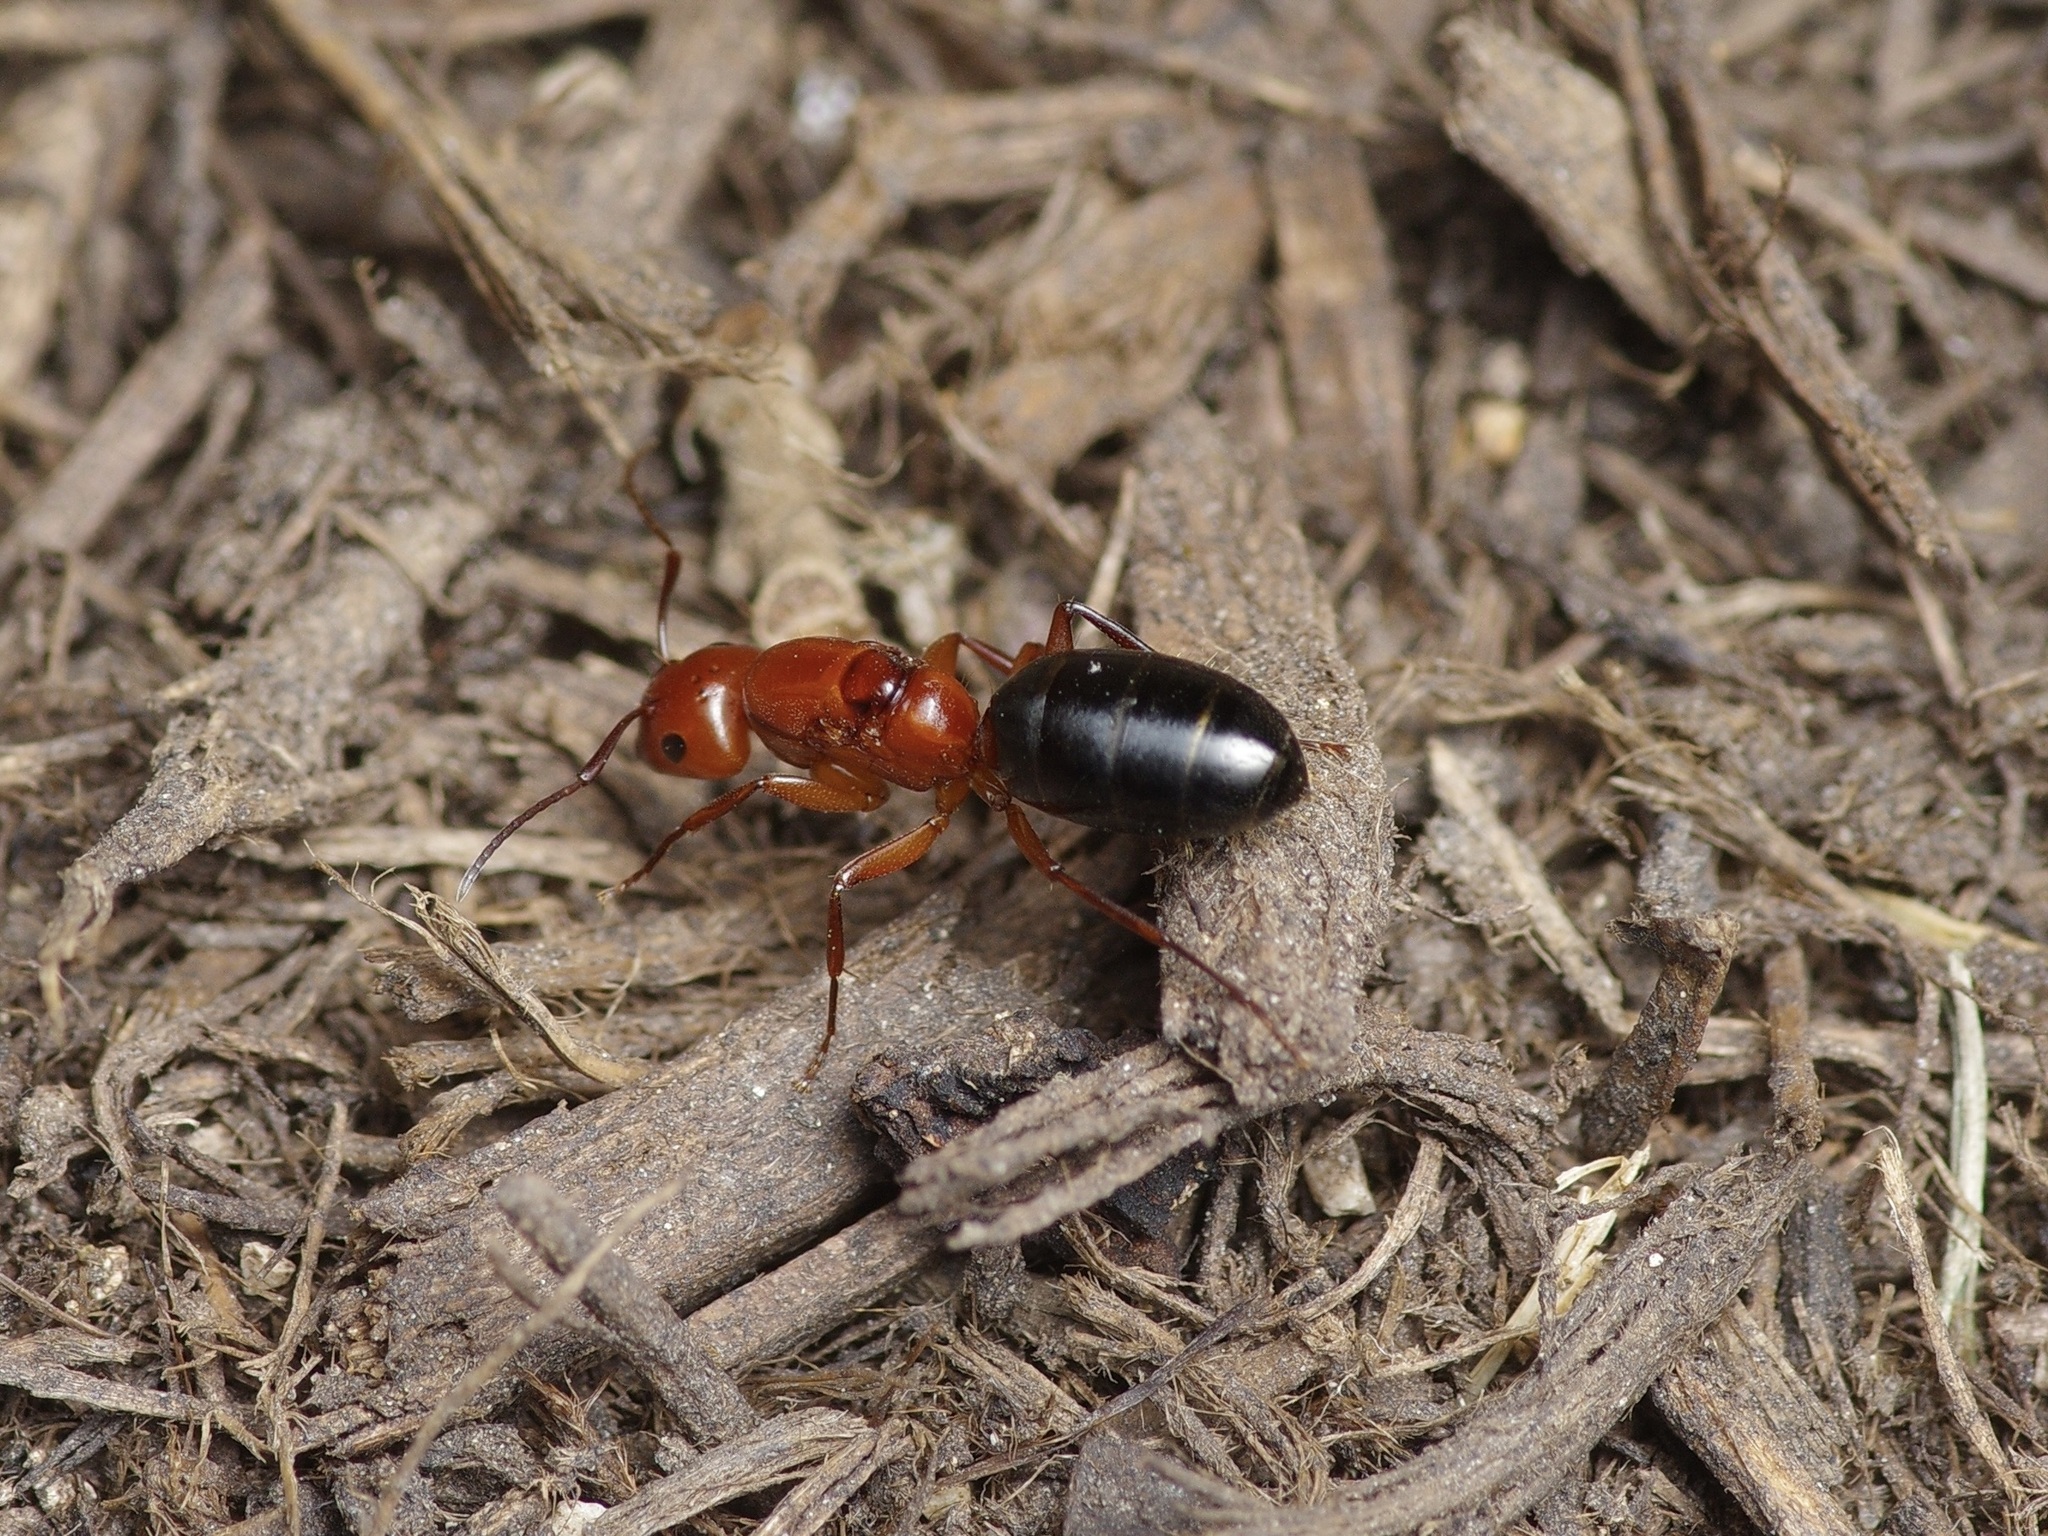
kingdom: Animalia
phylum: Arthropoda
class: Insecta
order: Hymenoptera
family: Formicidae
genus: Camponotus
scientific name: Camponotus decipiens
